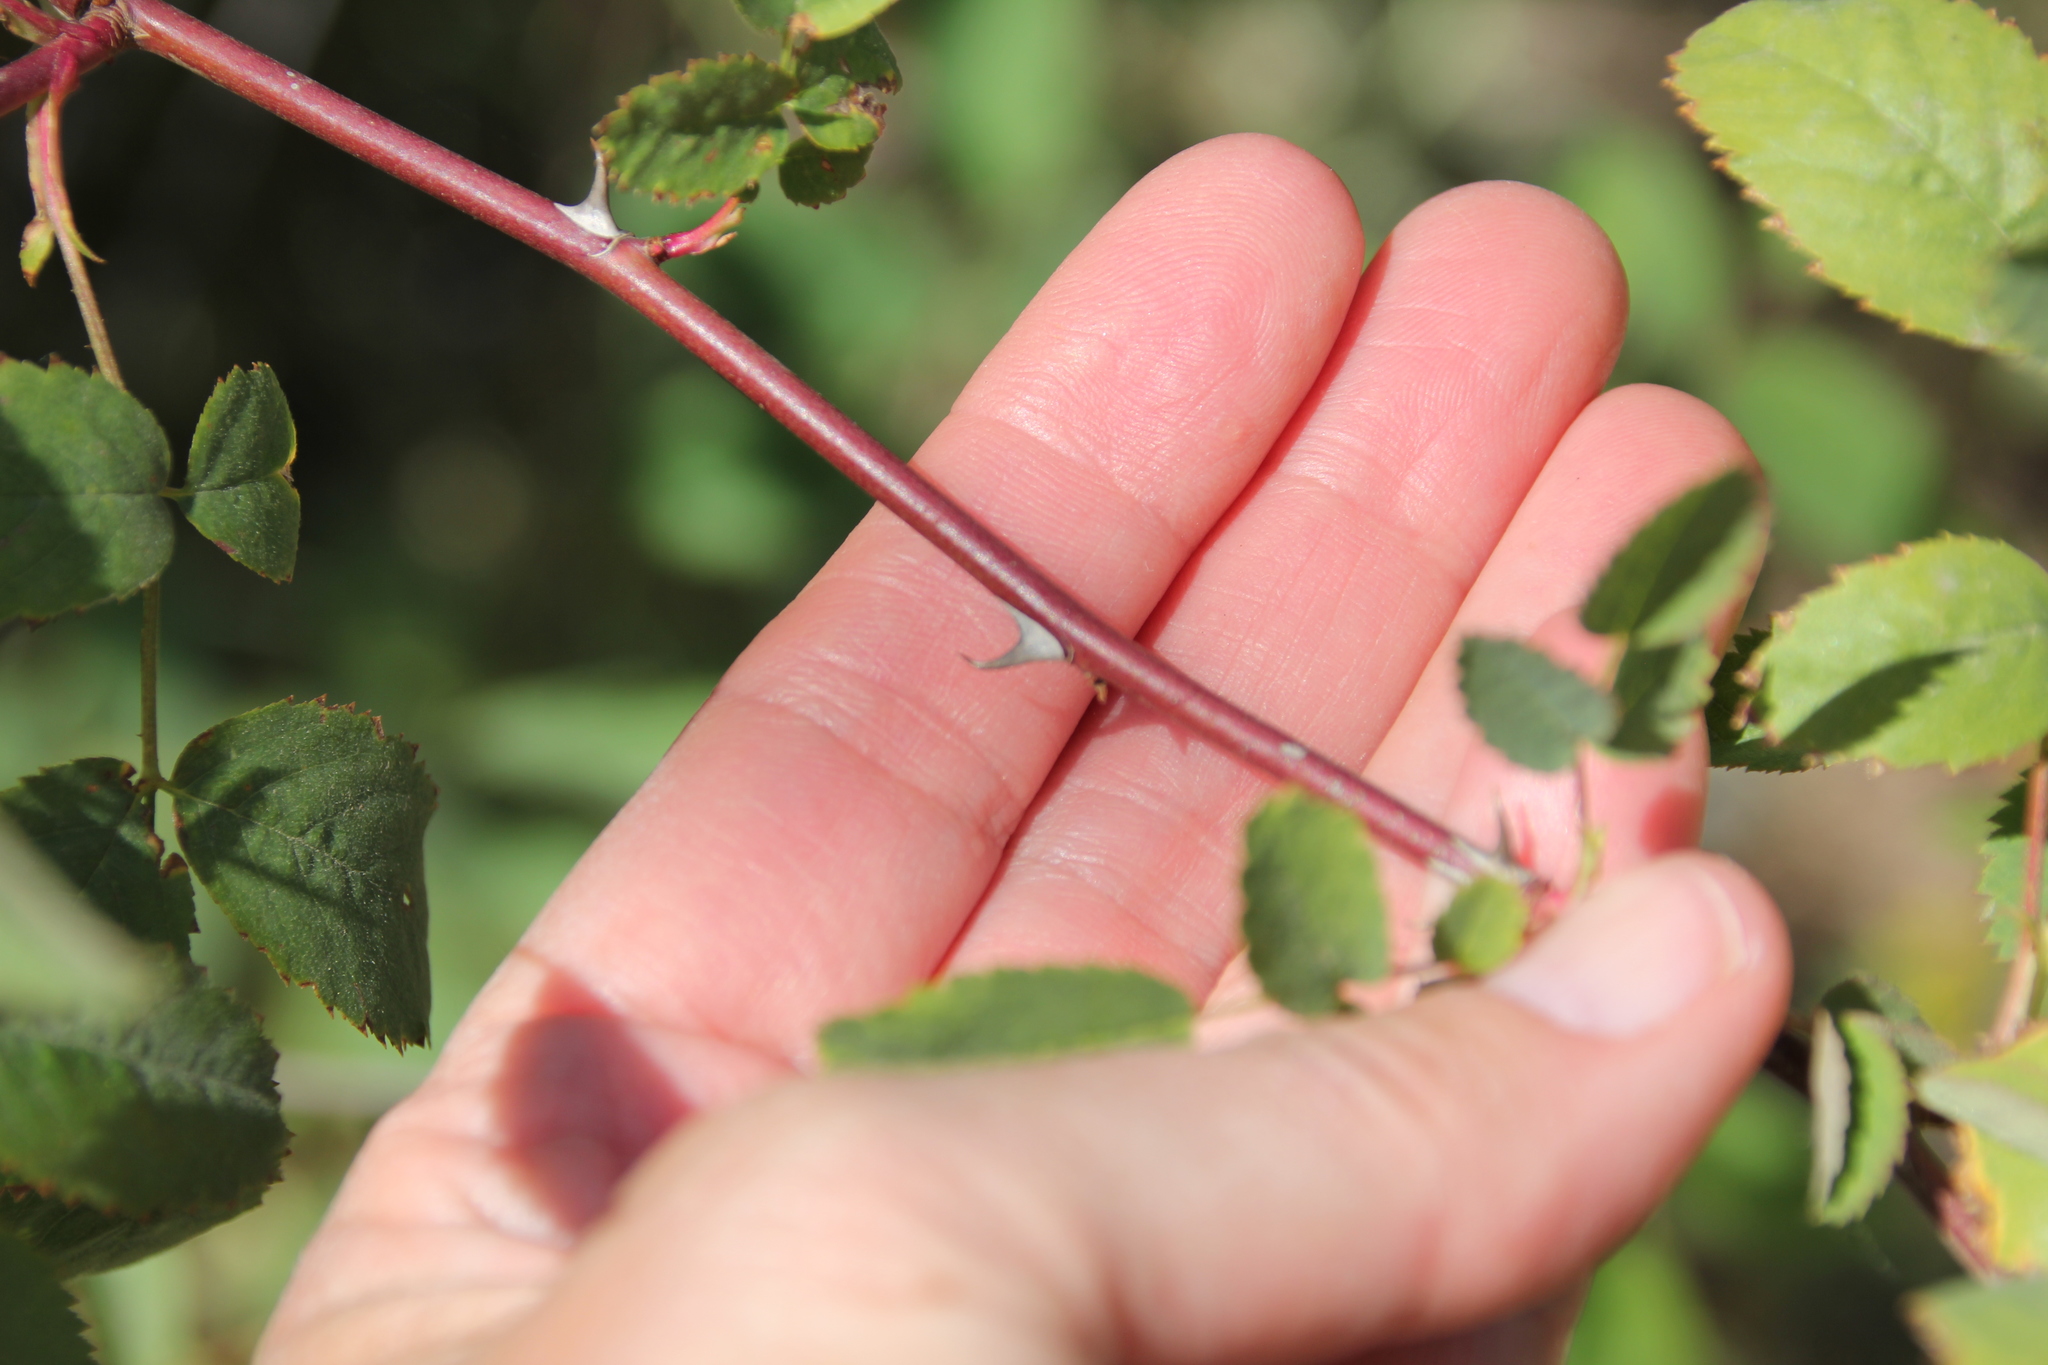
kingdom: Plantae
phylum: Tracheophyta
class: Magnoliopsida
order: Rosales
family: Rosaceae
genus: Rosa
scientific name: Rosa californica
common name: California rose
